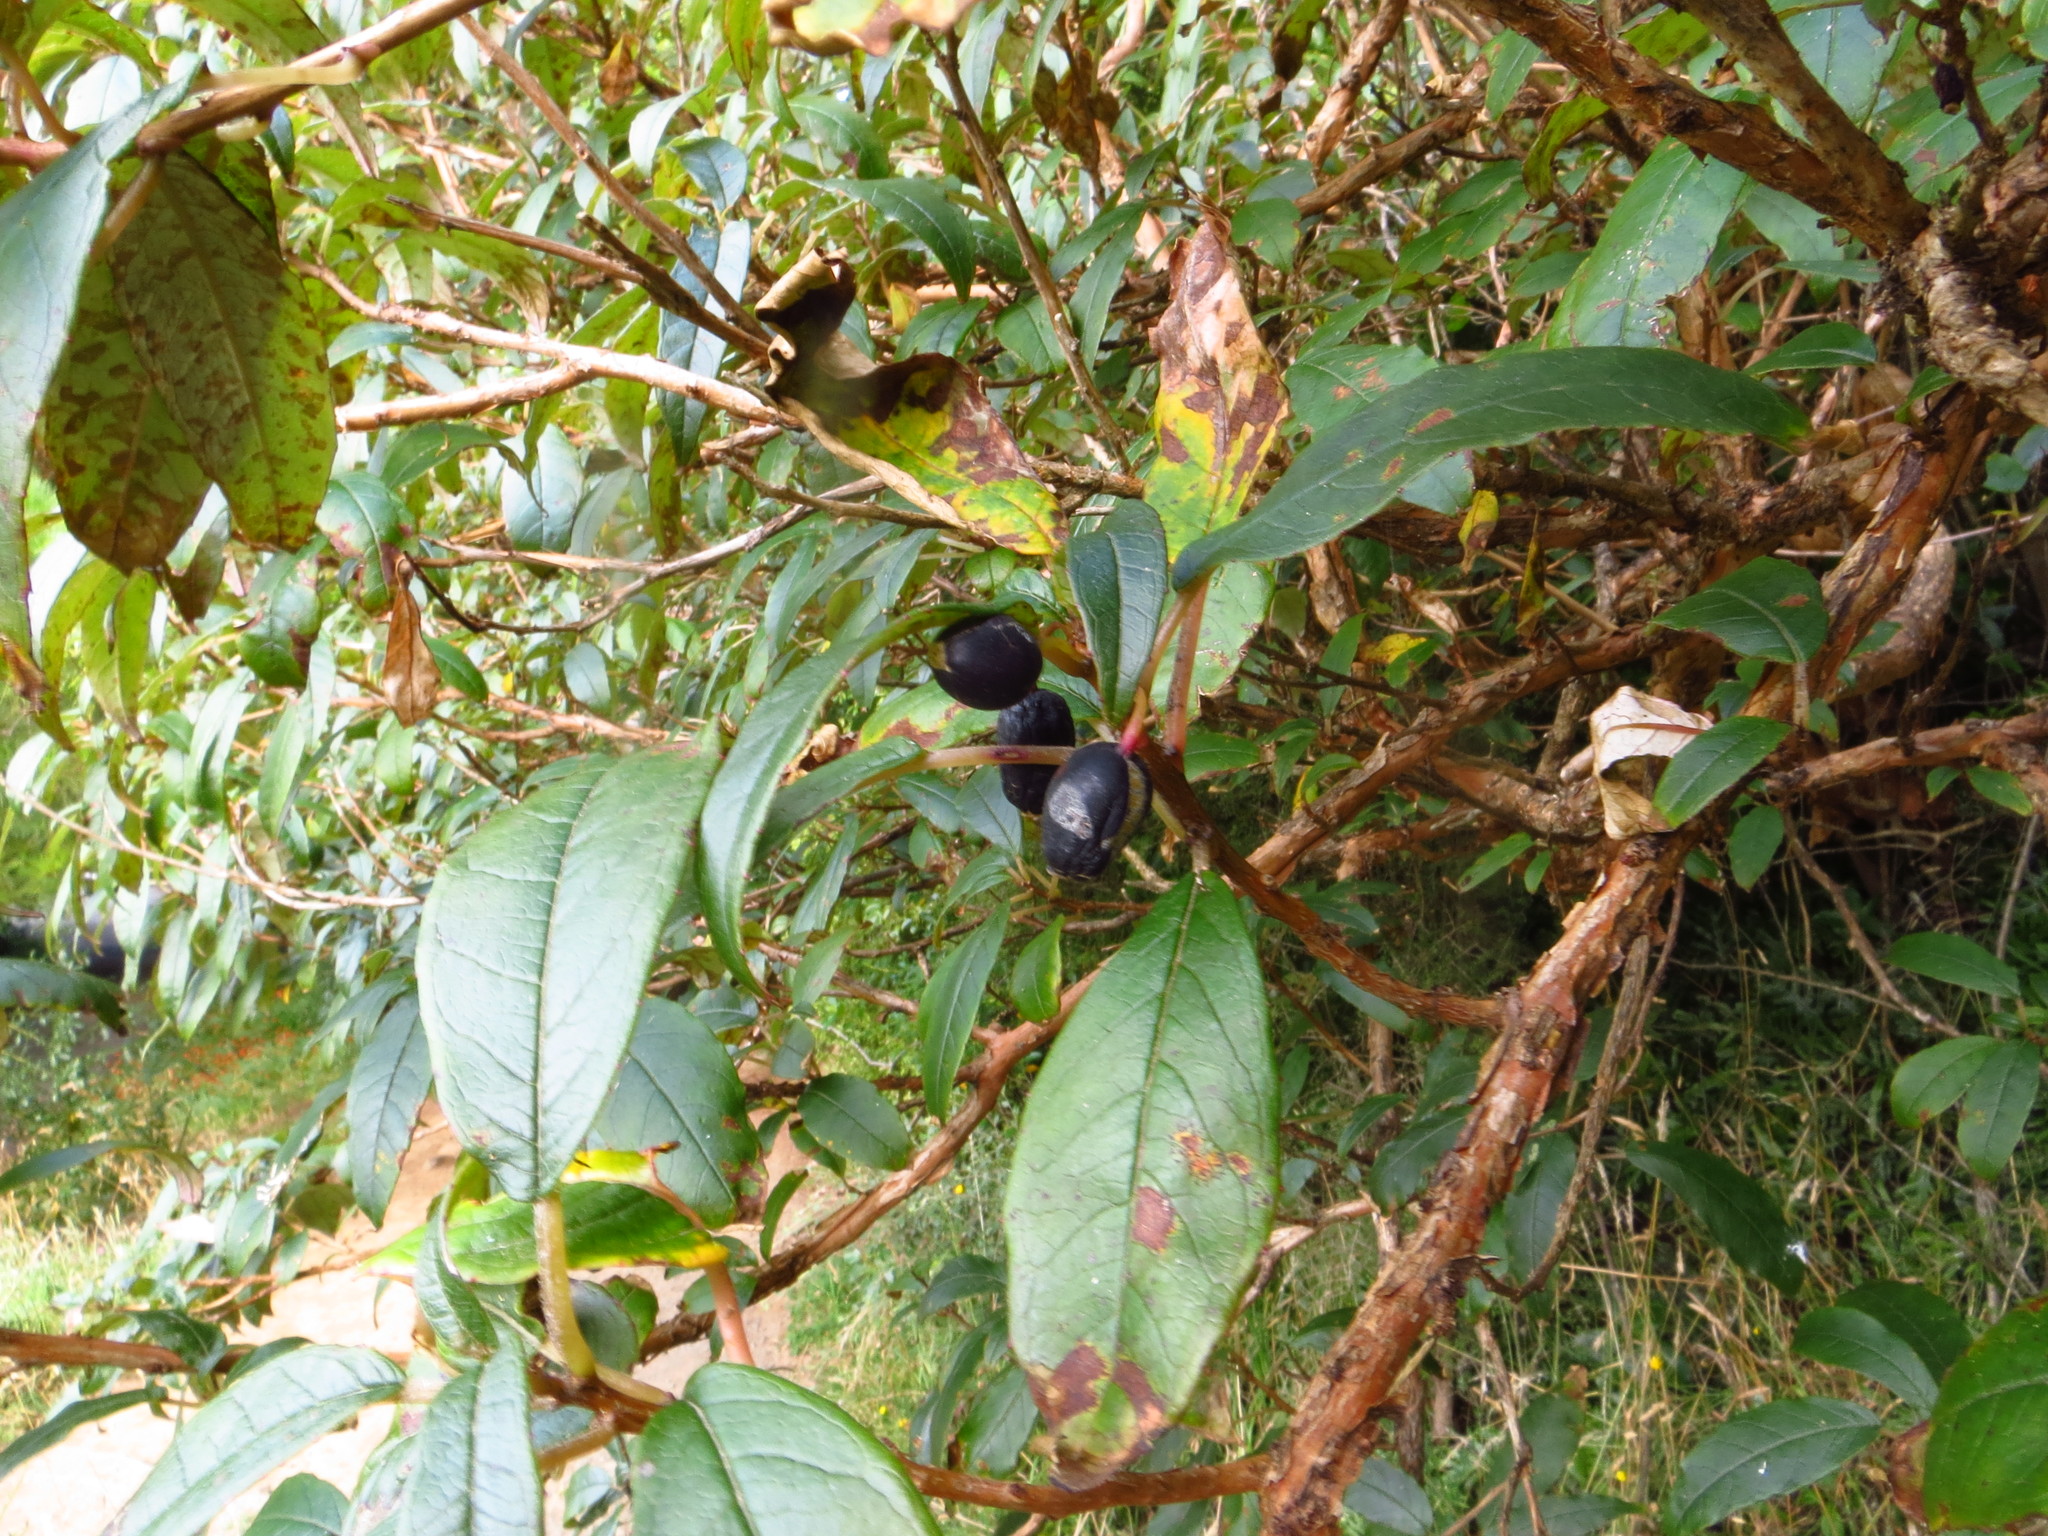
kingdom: Plantae
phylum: Tracheophyta
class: Magnoliopsida
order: Myrtales
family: Onagraceae
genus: Fuchsia
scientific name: Fuchsia excorticata
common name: Tree fuchsia
